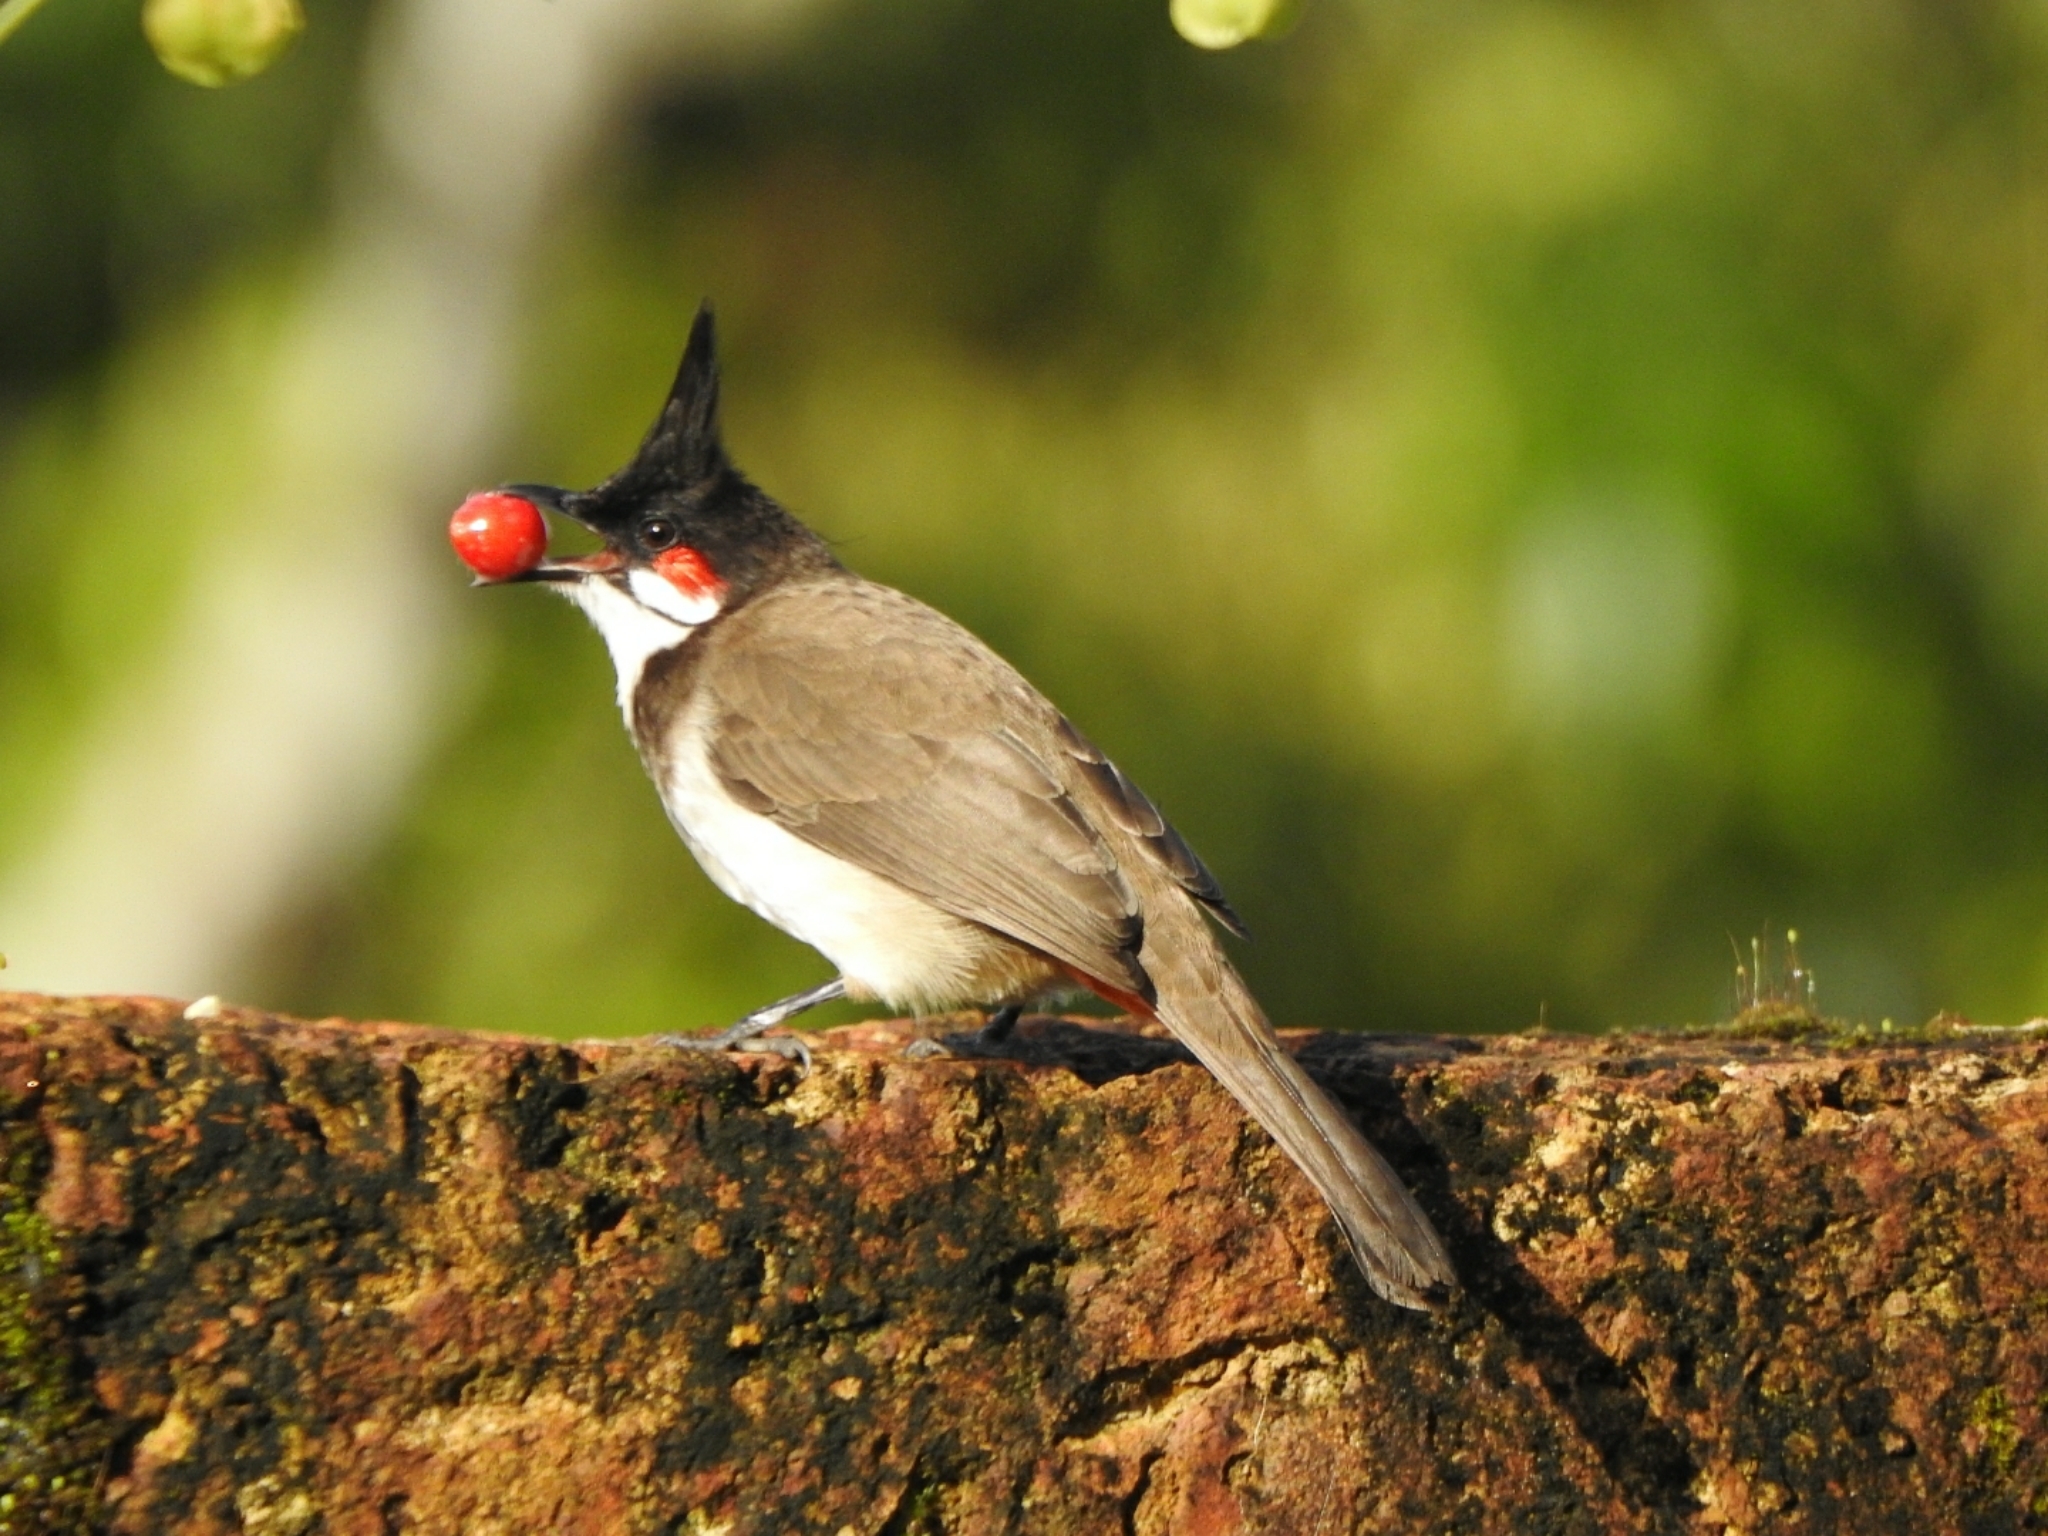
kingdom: Animalia
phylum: Chordata
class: Aves
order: Passeriformes
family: Pycnonotidae
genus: Pycnonotus
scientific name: Pycnonotus jocosus
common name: Red-whiskered bulbul
